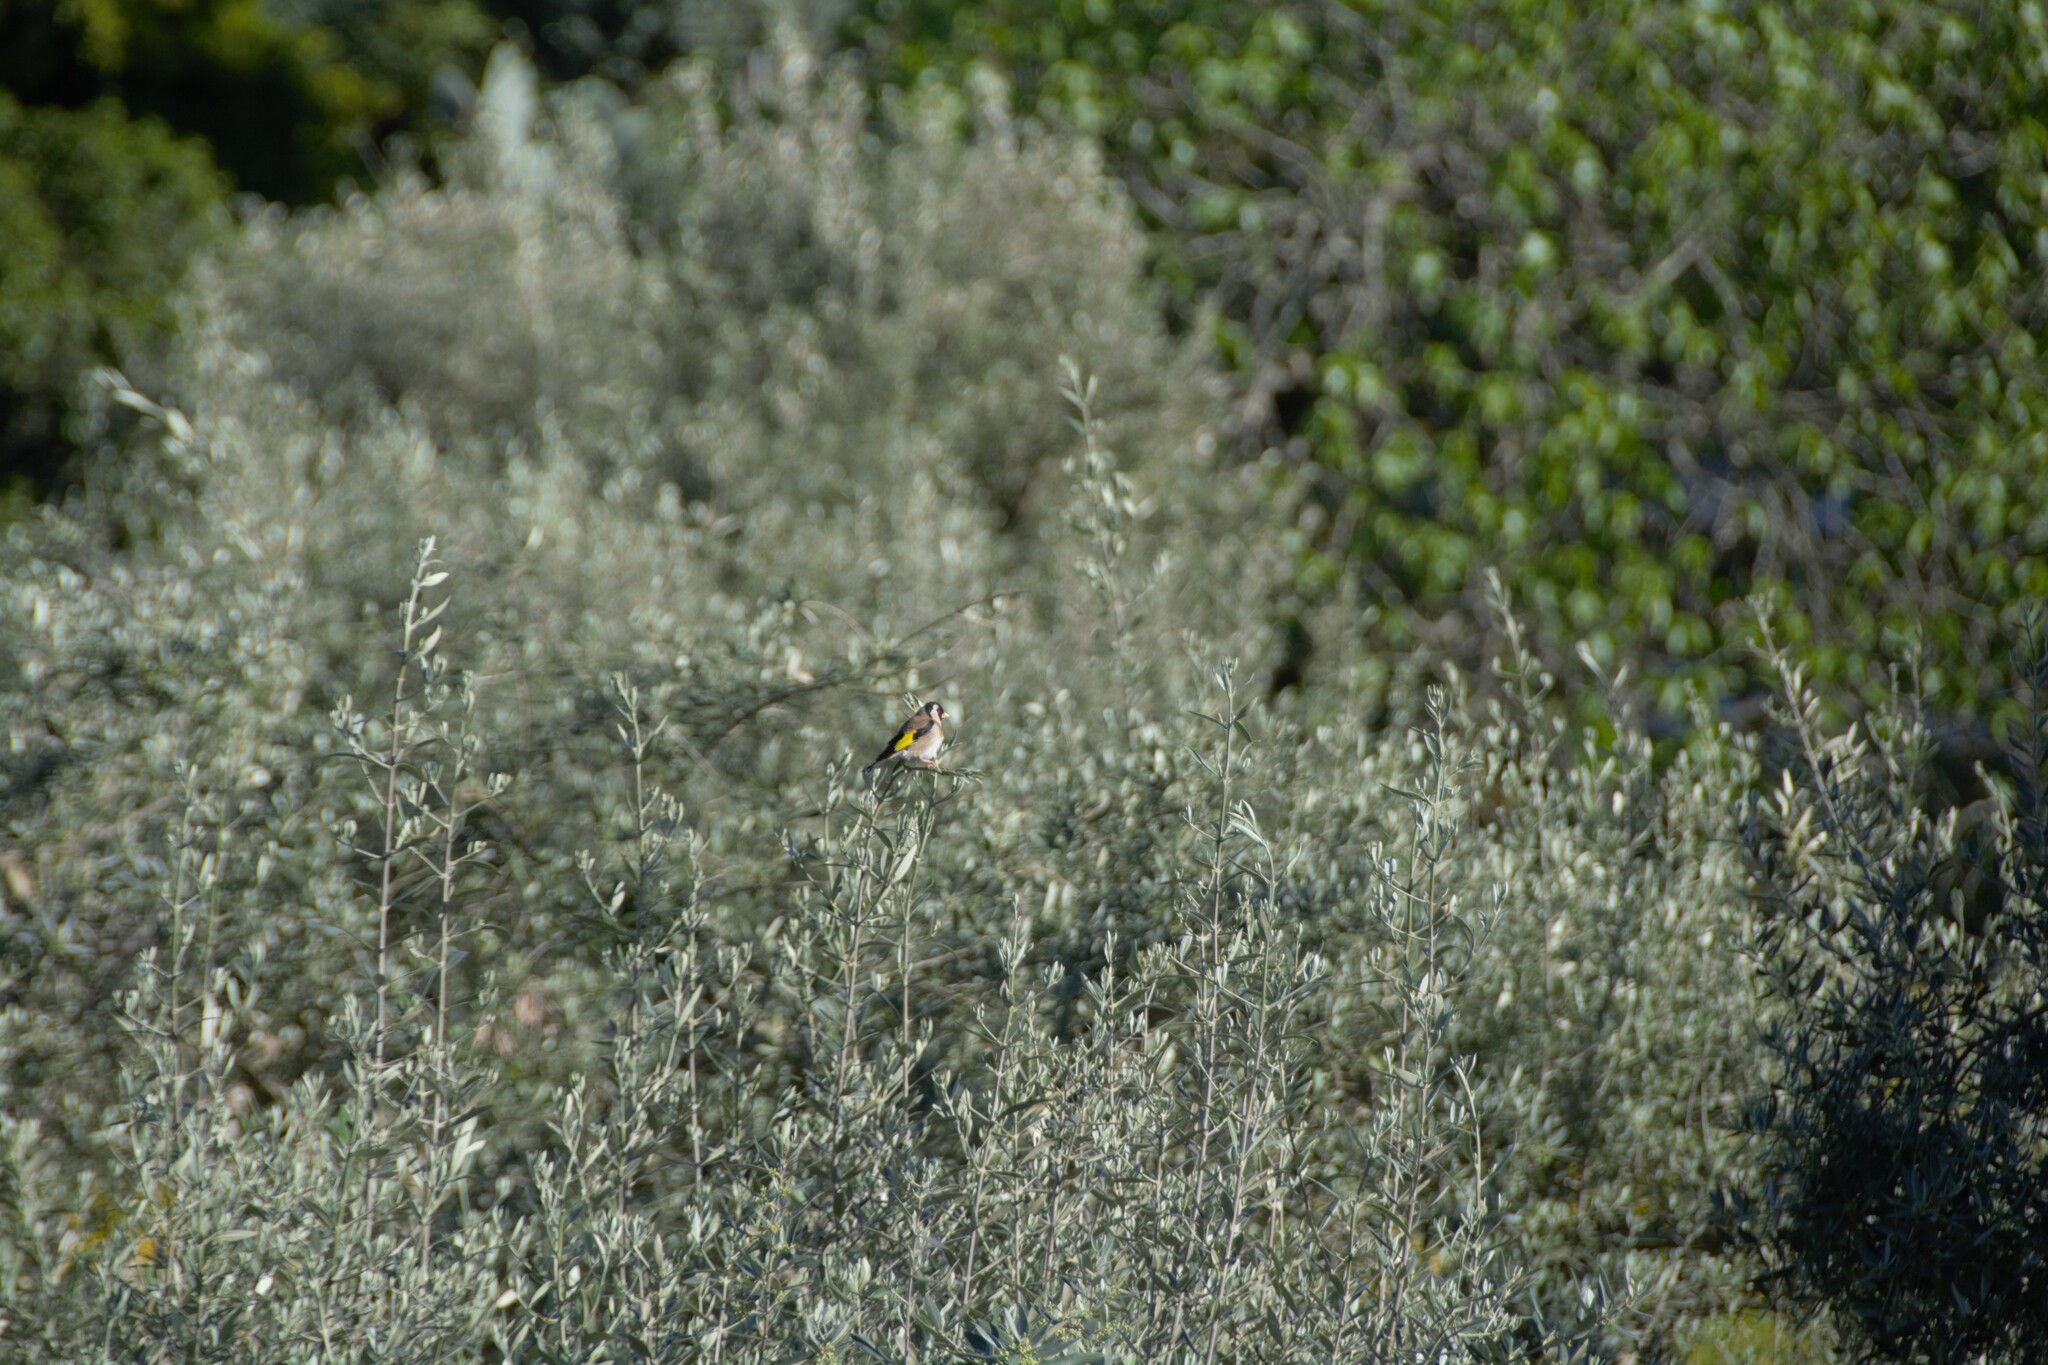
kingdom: Animalia
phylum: Chordata
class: Aves
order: Passeriformes
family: Fringillidae
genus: Carduelis
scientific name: Carduelis carduelis
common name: European goldfinch
